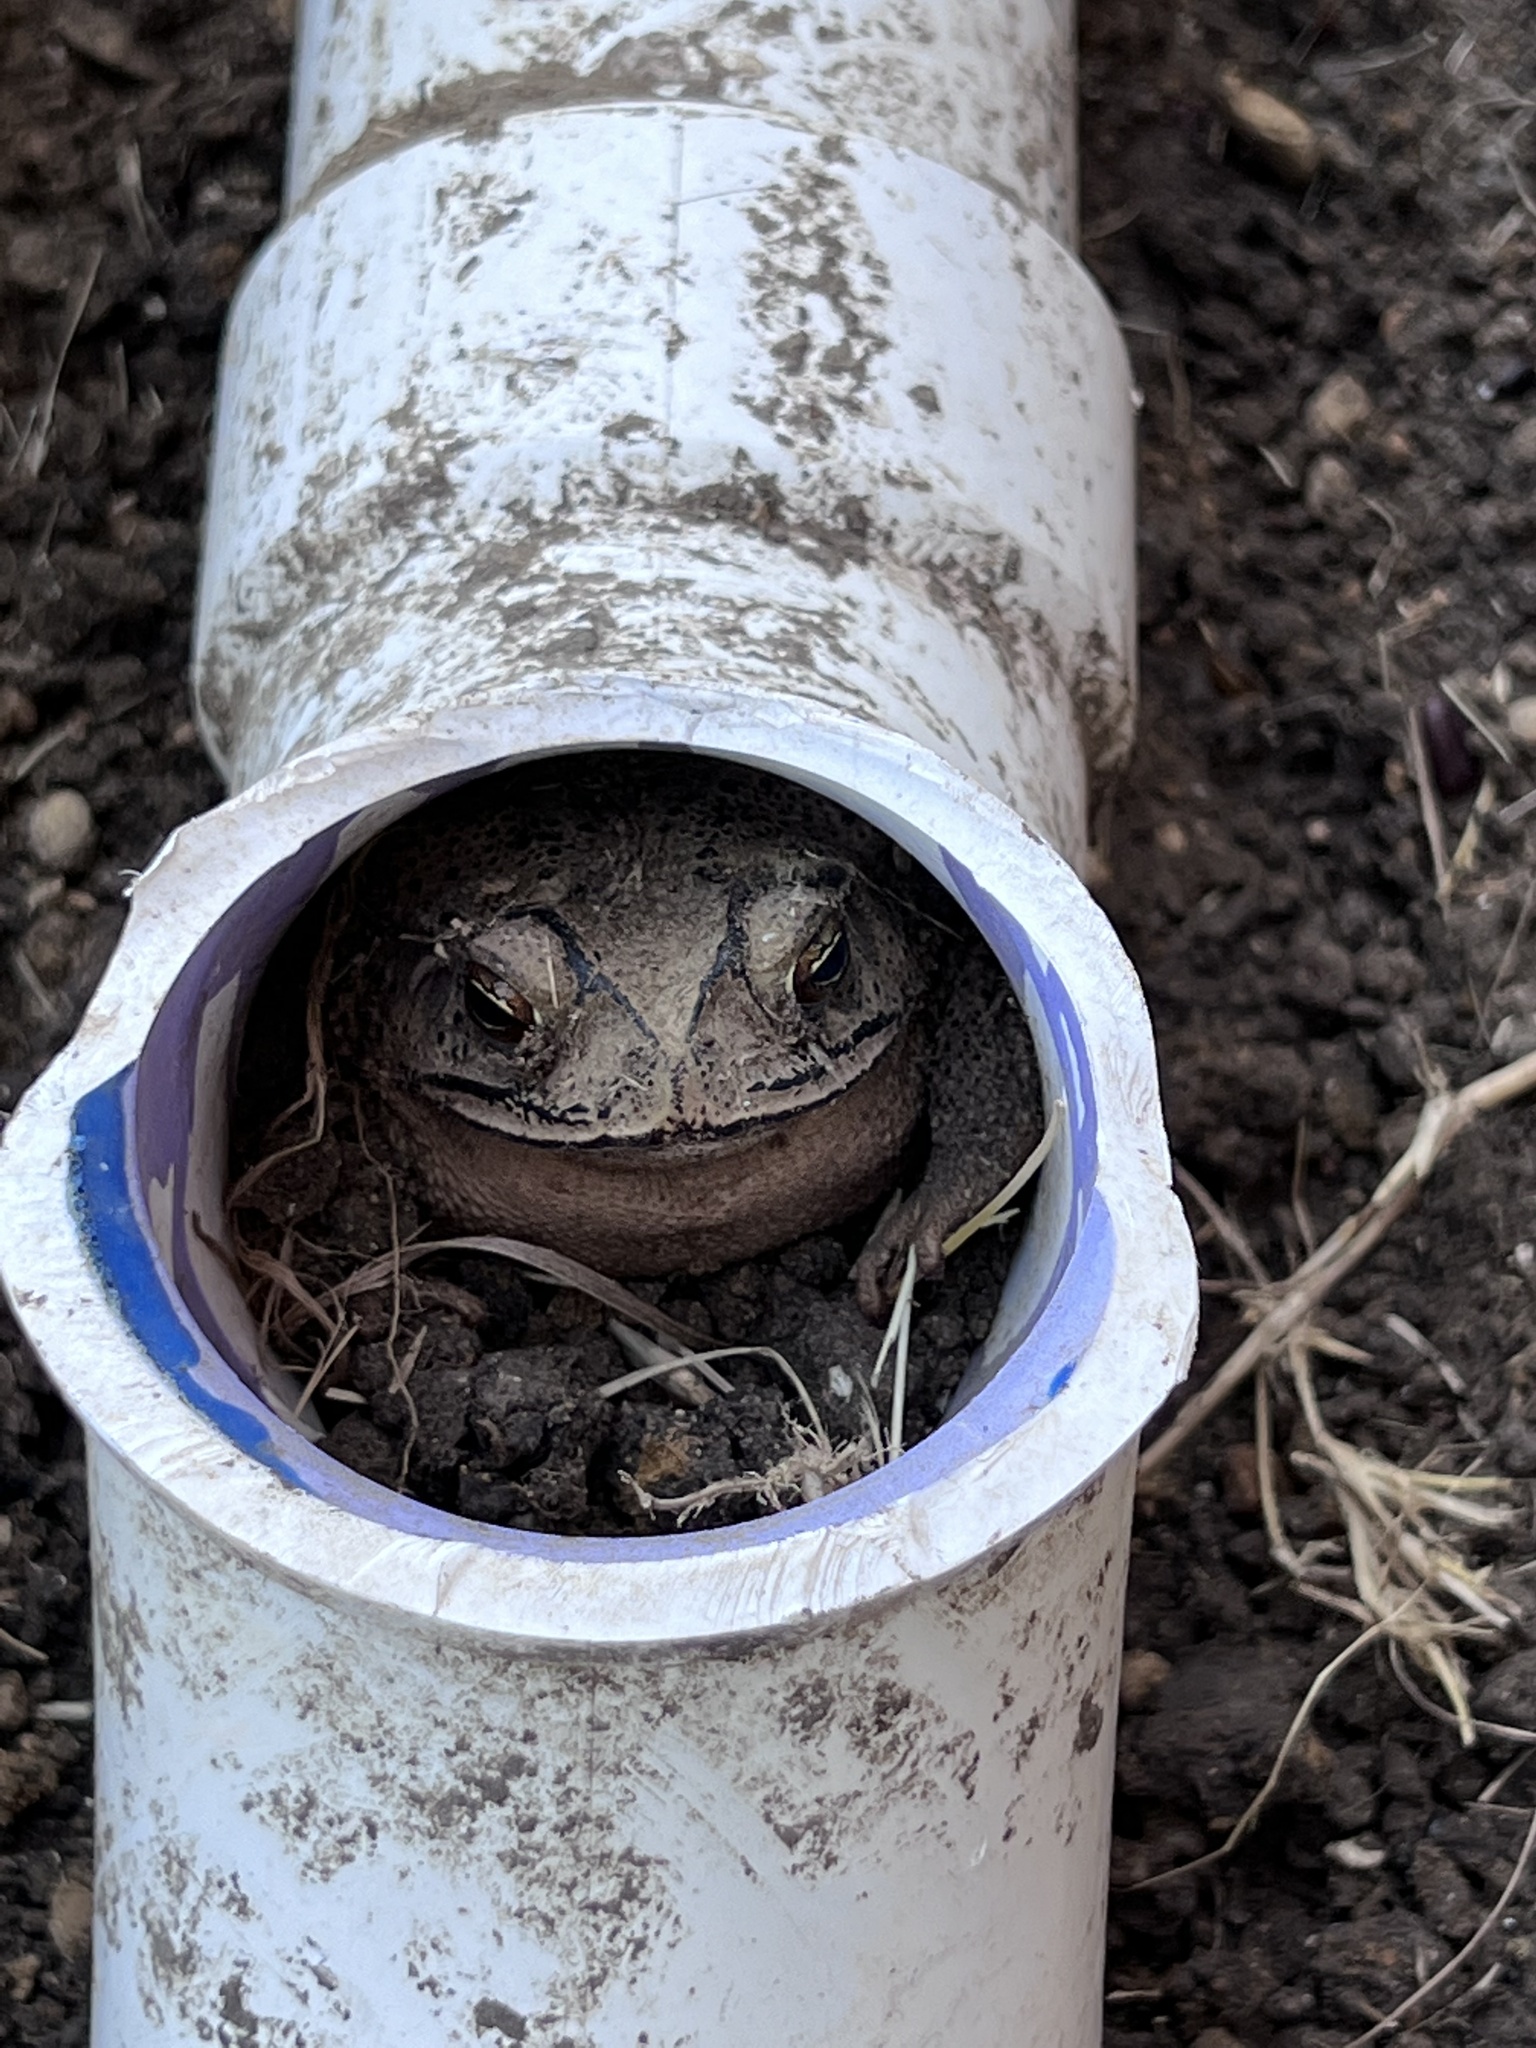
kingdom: Animalia
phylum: Chordata
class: Amphibia
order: Anura
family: Bufonidae
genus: Incilius
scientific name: Incilius nebulifer
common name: Gulf coast toad
